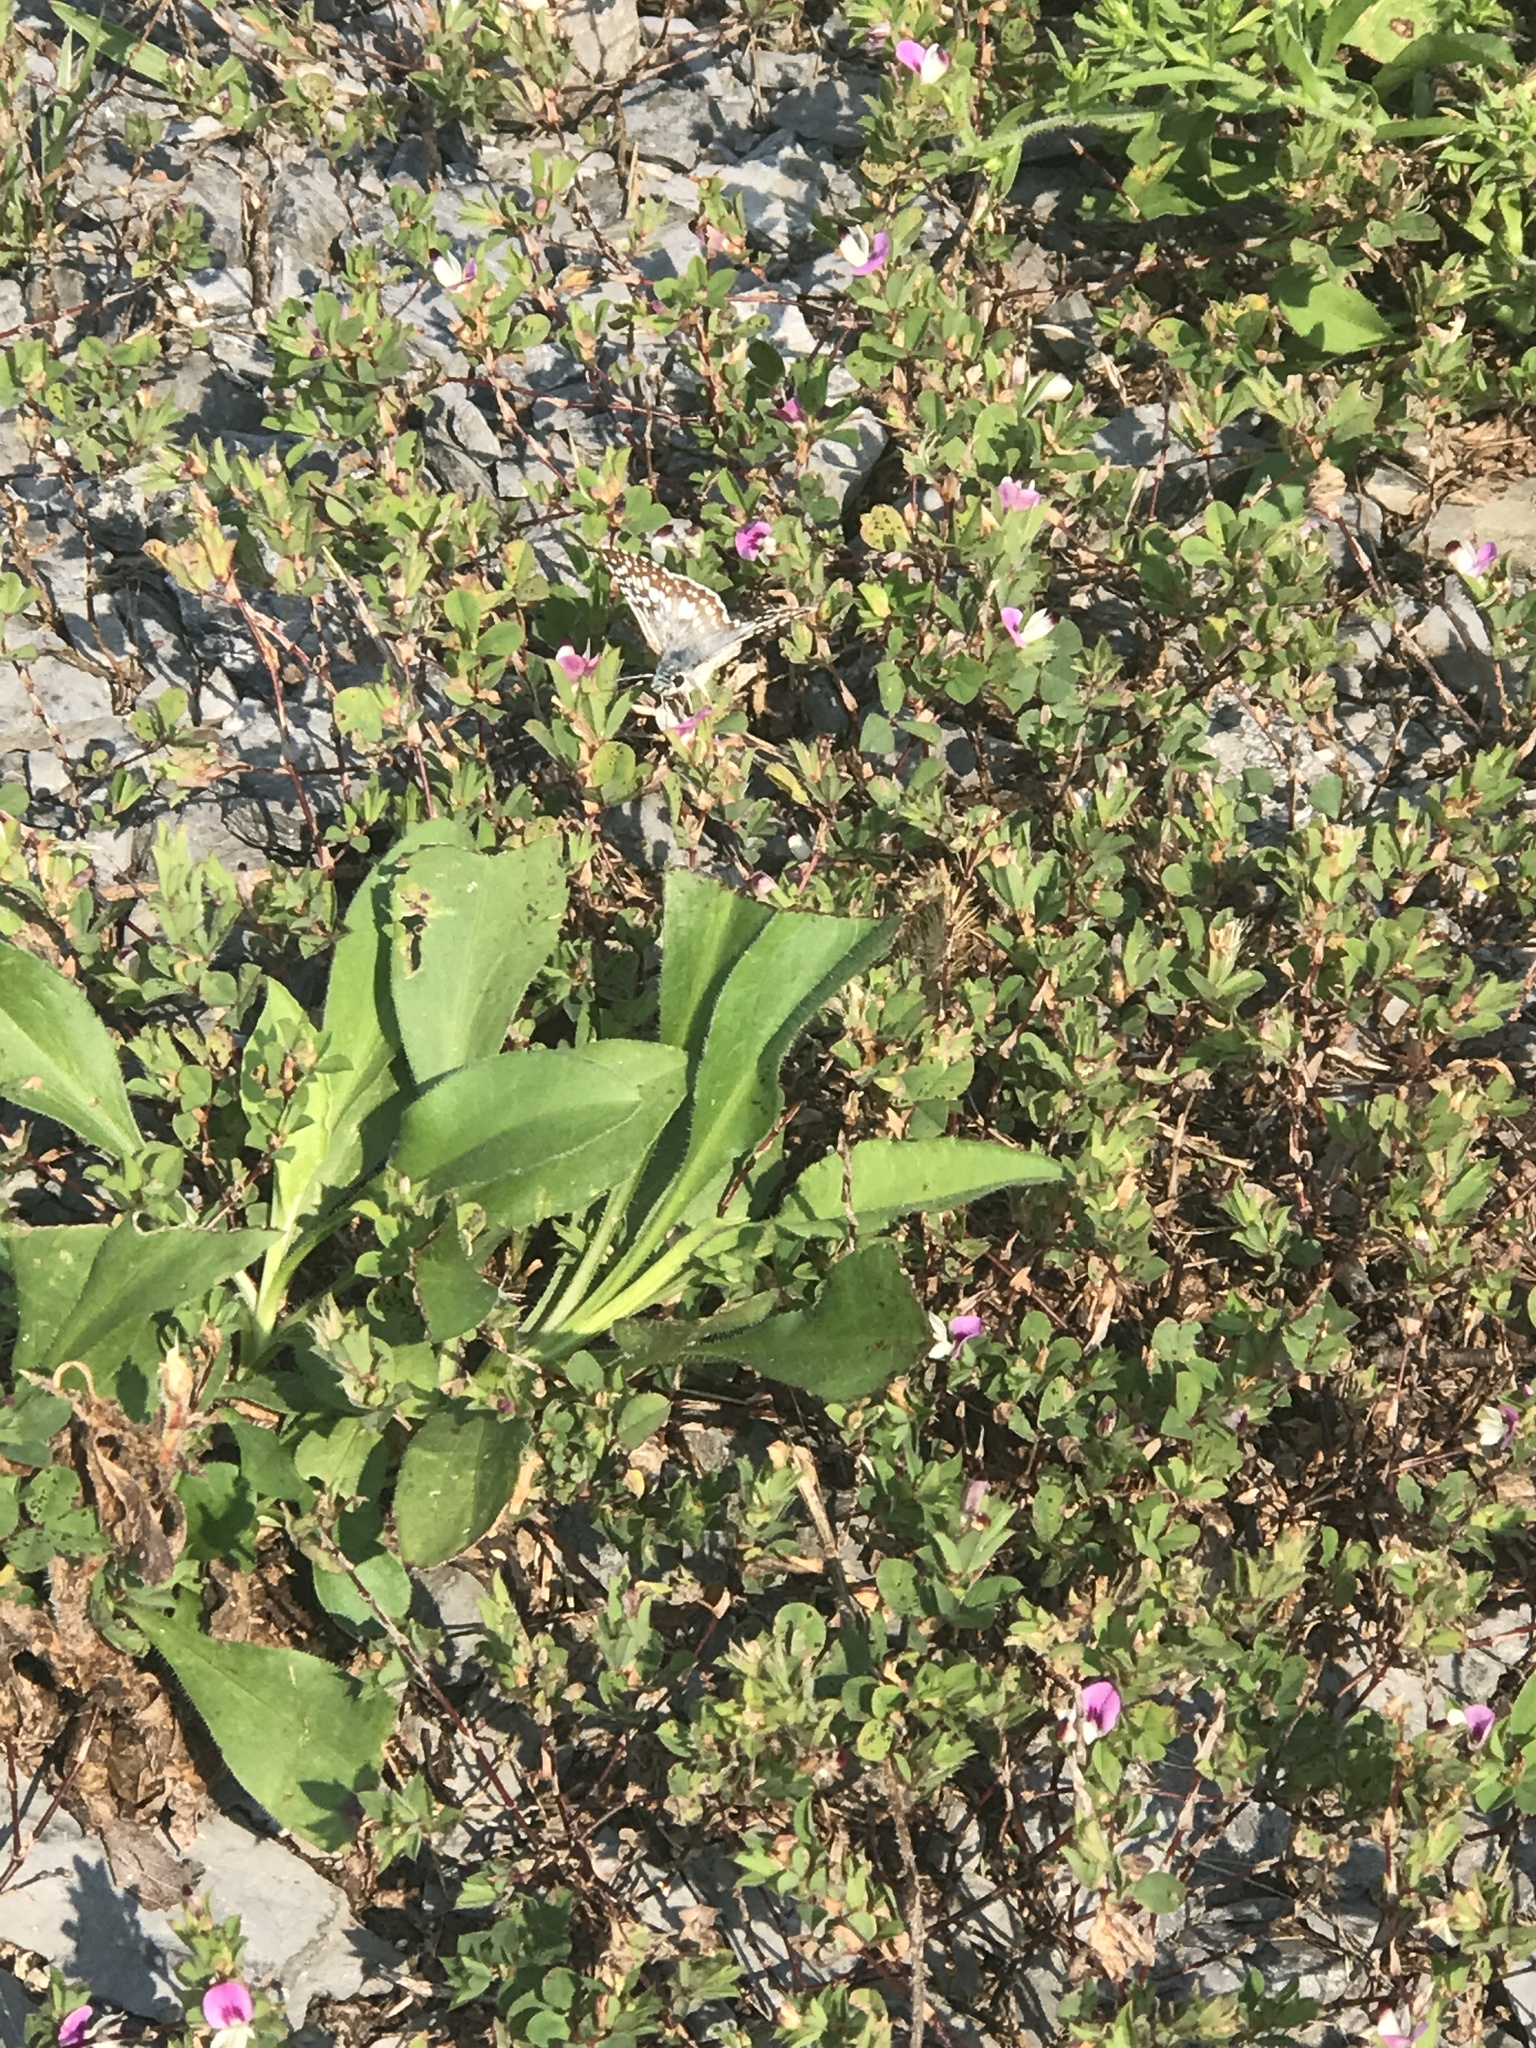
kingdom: Animalia
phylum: Arthropoda
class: Insecta
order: Lepidoptera
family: Hesperiidae
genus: Burnsius
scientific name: Burnsius communis
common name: Common checkered-skipper
